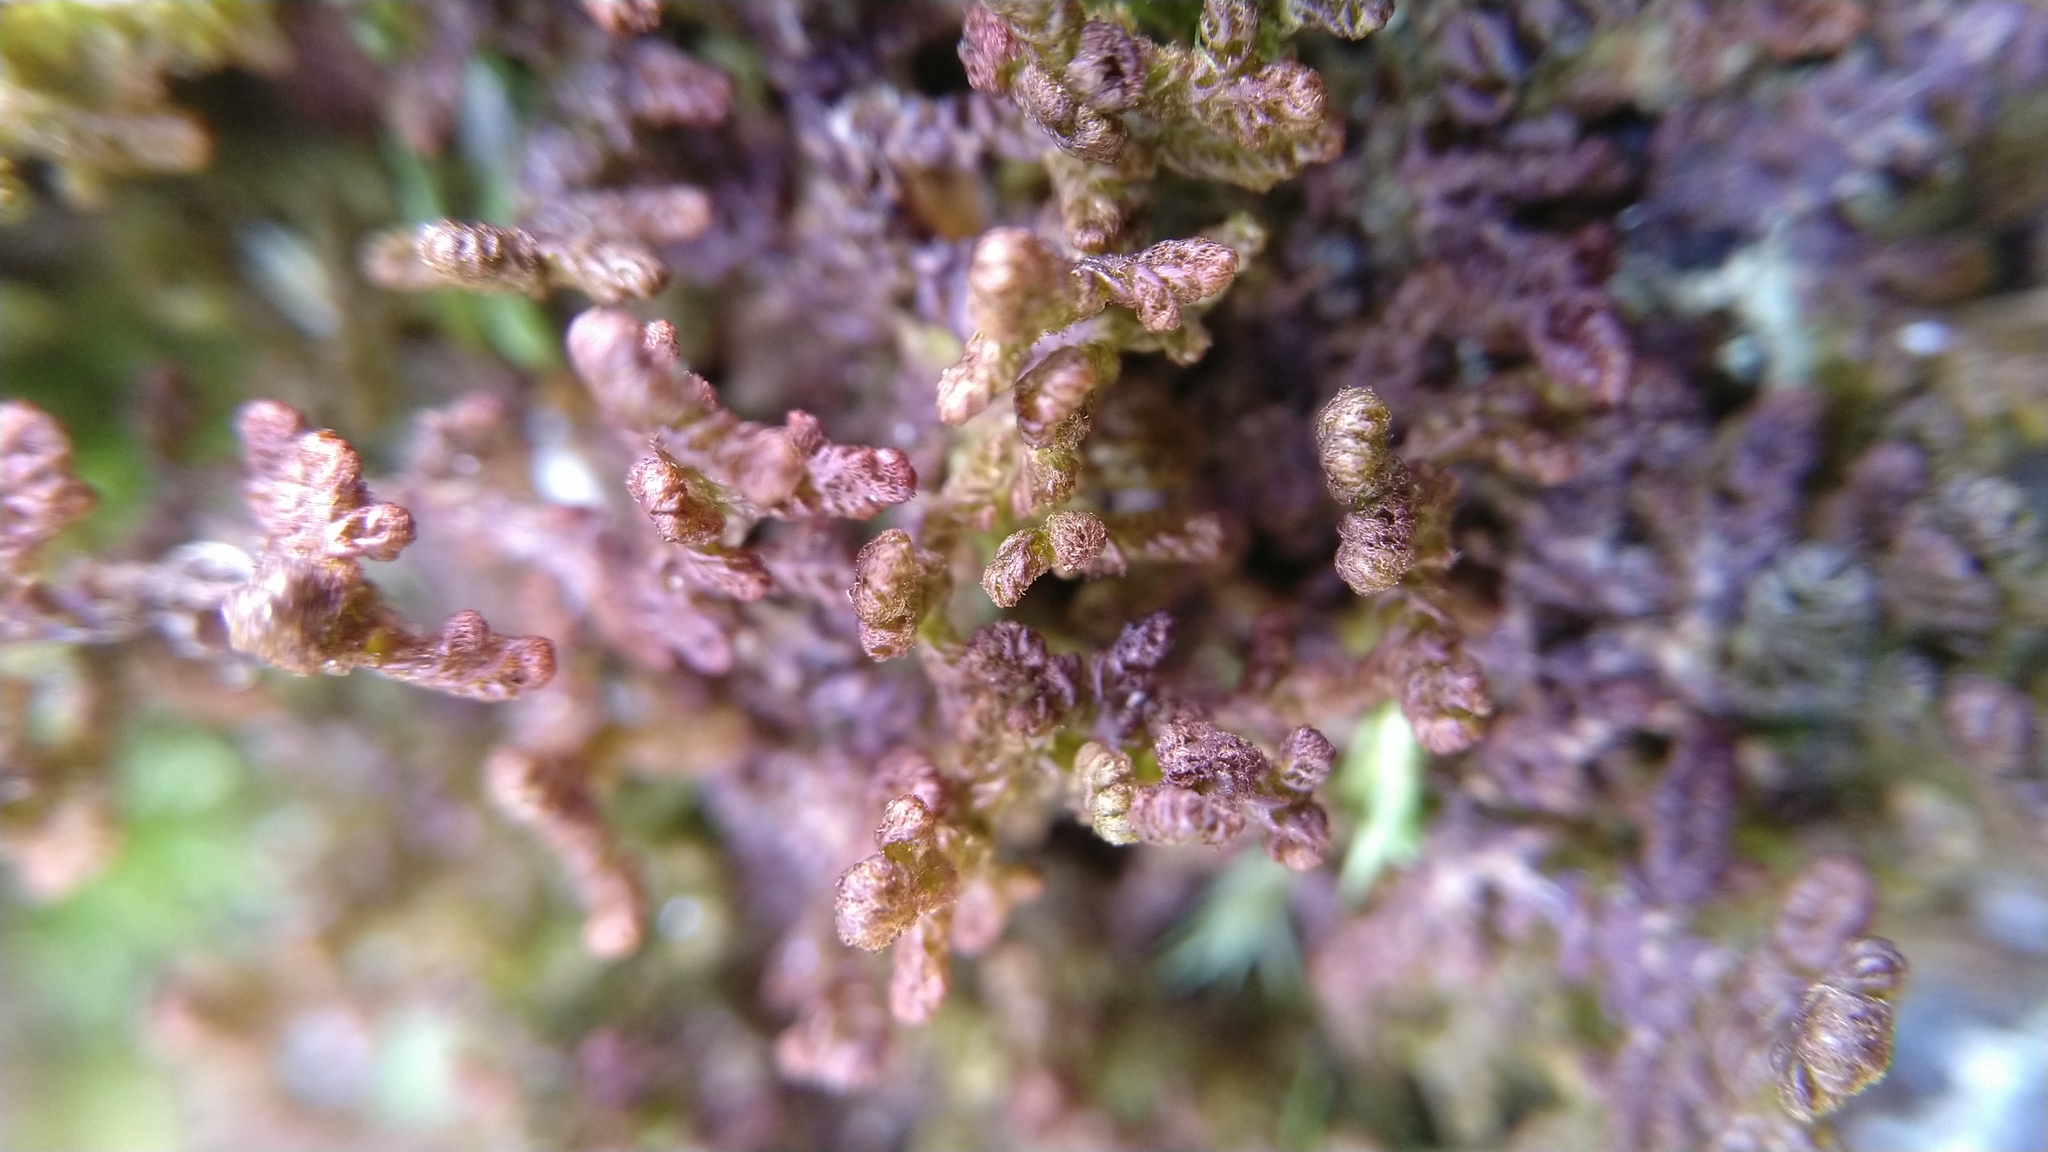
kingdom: Plantae
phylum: Marchantiophyta
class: Jungermanniopsida
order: Ptilidiales
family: Ptilidiaceae
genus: Ptilidium
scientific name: Ptilidium ciliare
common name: Ciliate fringewort
